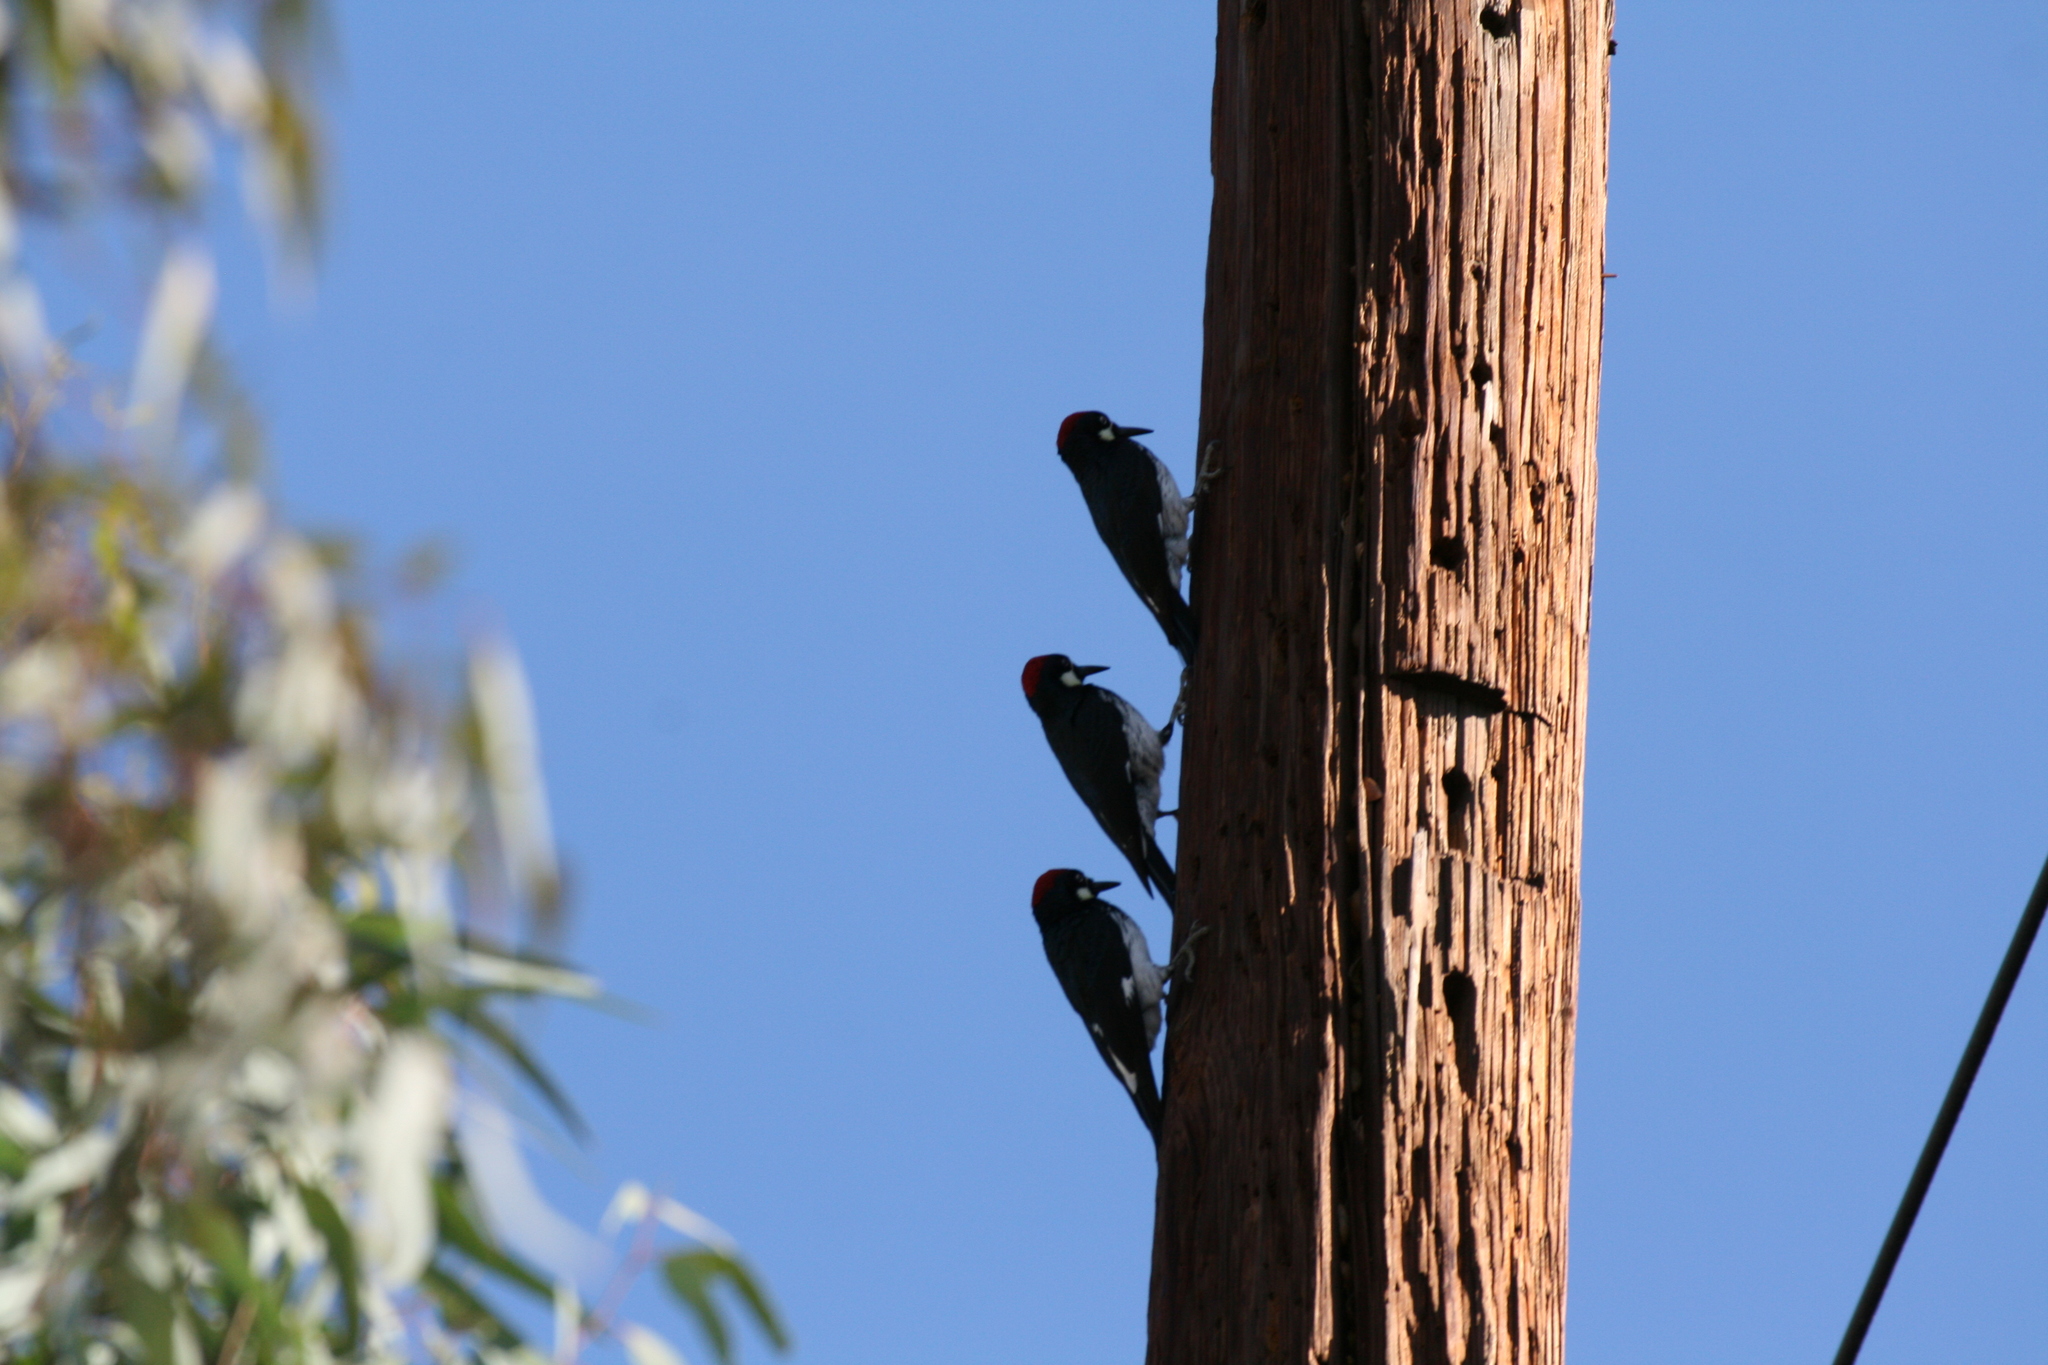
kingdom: Animalia
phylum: Chordata
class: Aves
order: Piciformes
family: Picidae
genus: Melanerpes
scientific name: Melanerpes formicivorus
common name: Acorn woodpecker
